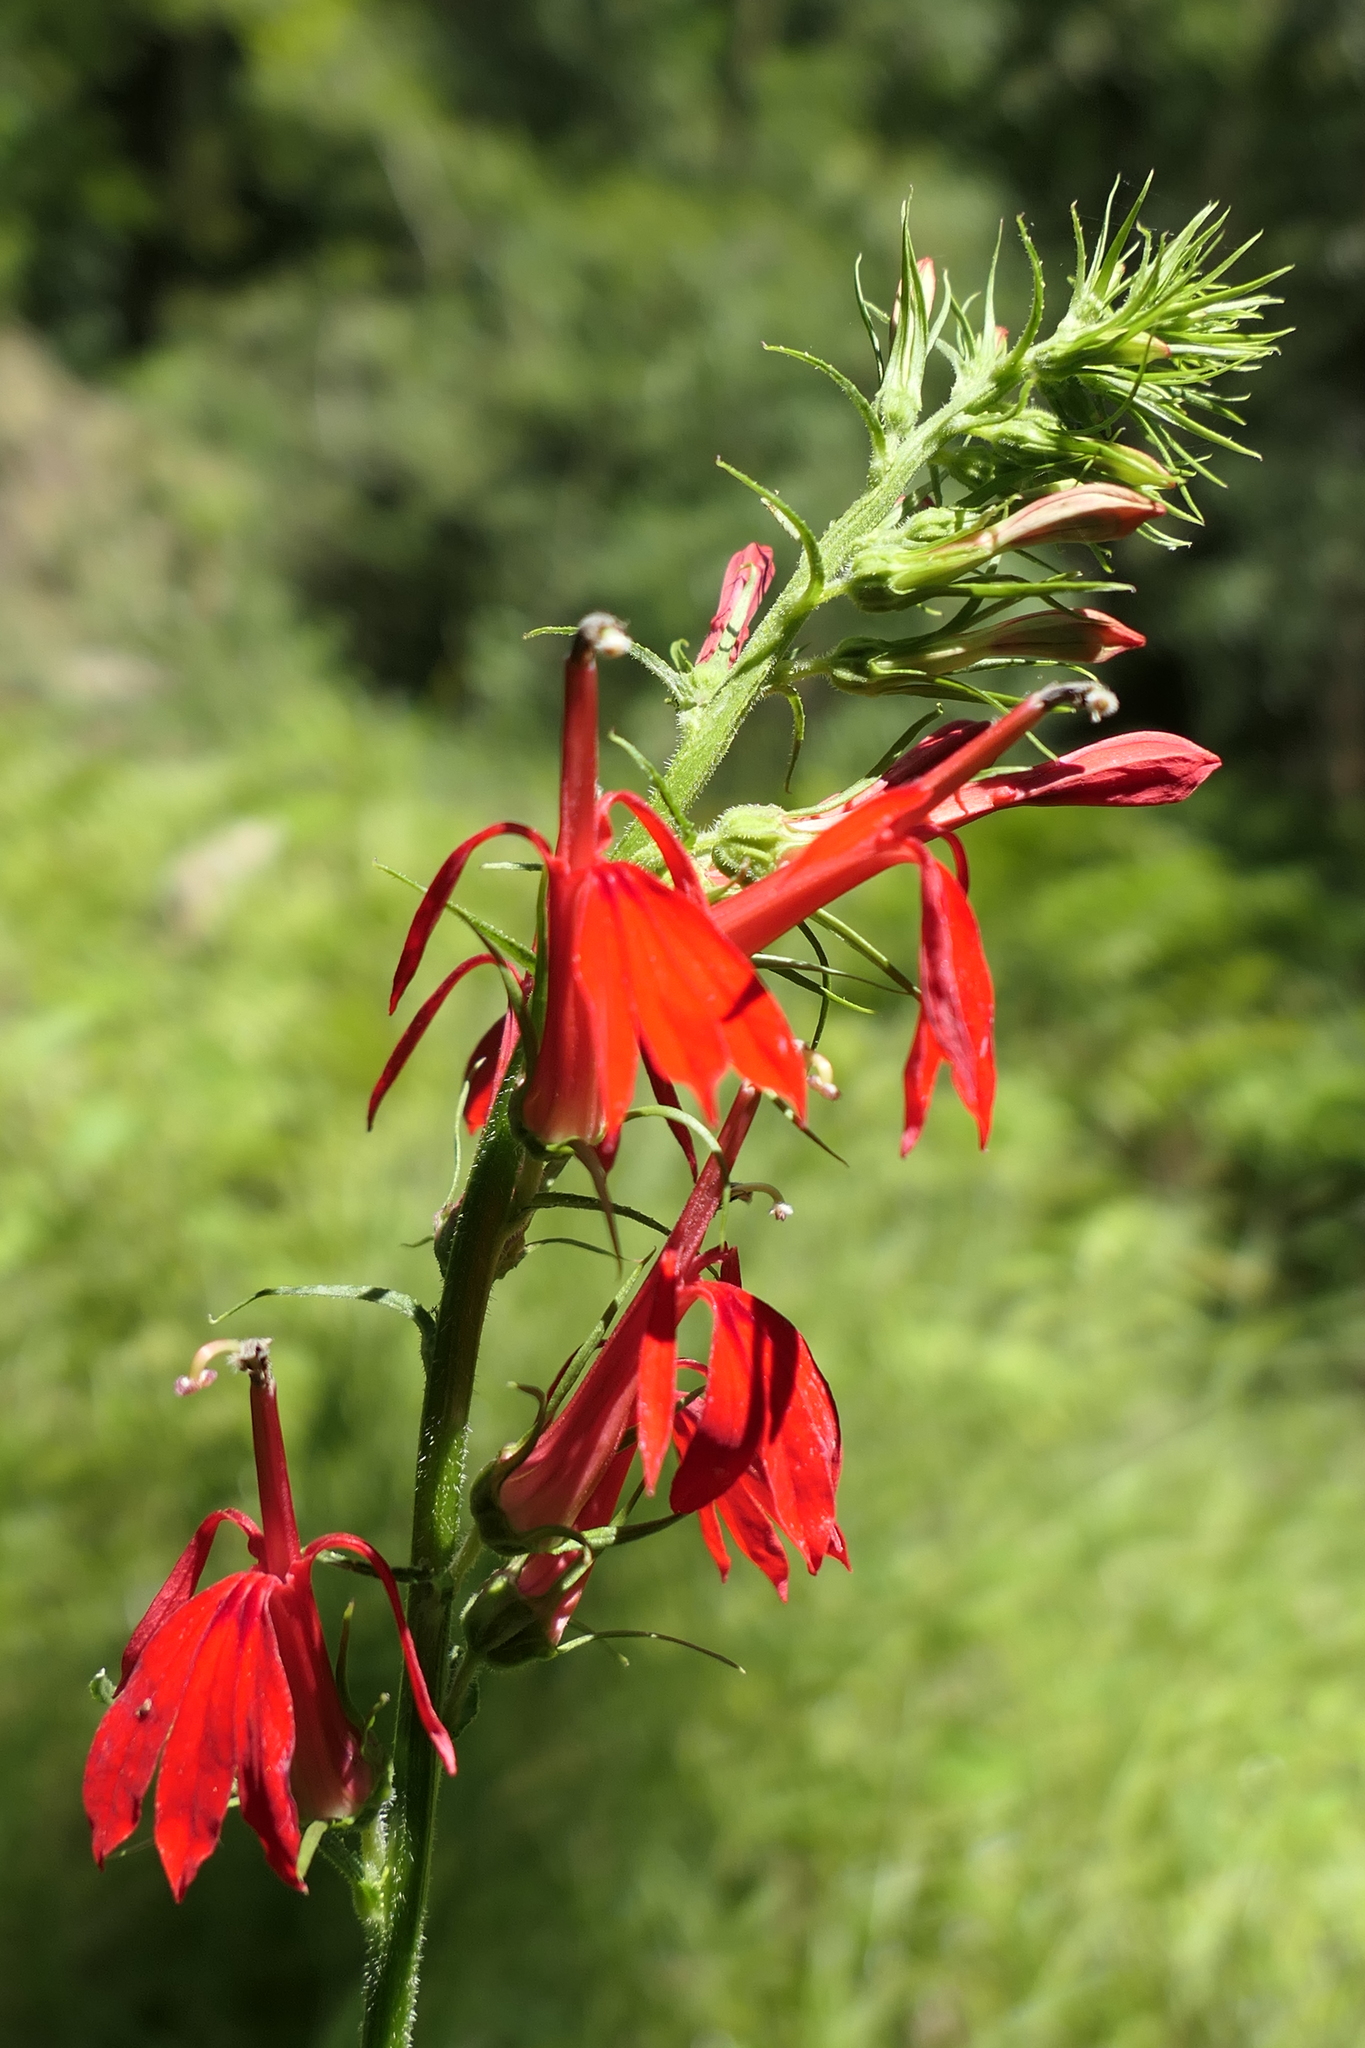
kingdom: Plantae
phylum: Tracheophyta
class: Magnoliopsida
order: Asterales
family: Campanulaceae
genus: Lobelia
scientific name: Lobelia cardinalis
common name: Cardinal flower
